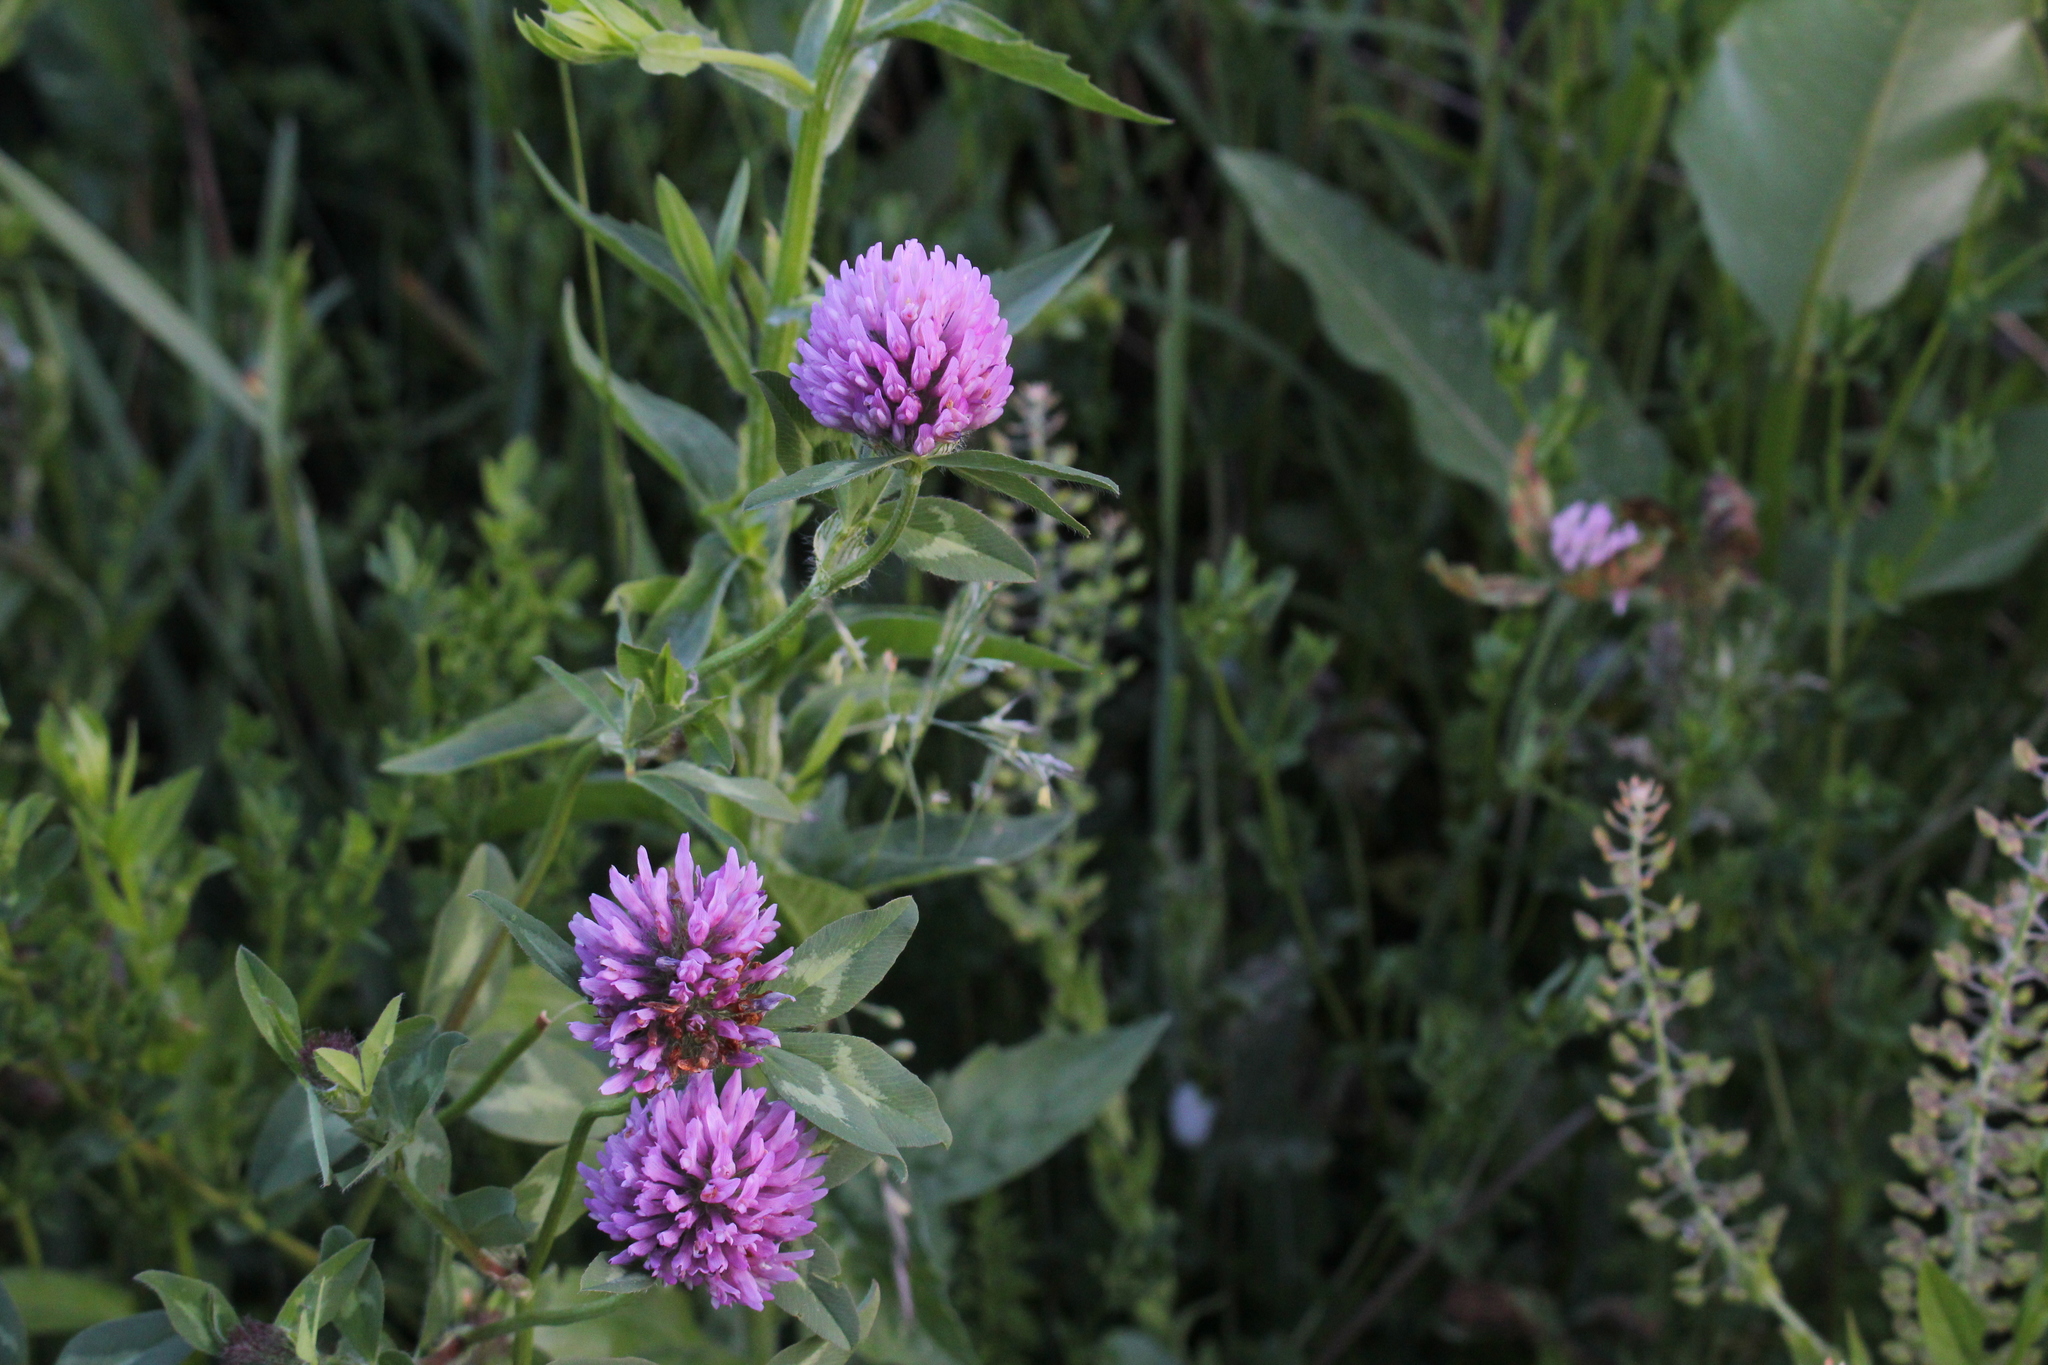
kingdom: Plantae
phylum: Tracheophyta
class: Magnoliopsida
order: Fabales
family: Fabaceae
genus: Trifolium
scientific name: Trifolium pratense
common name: Red clover
